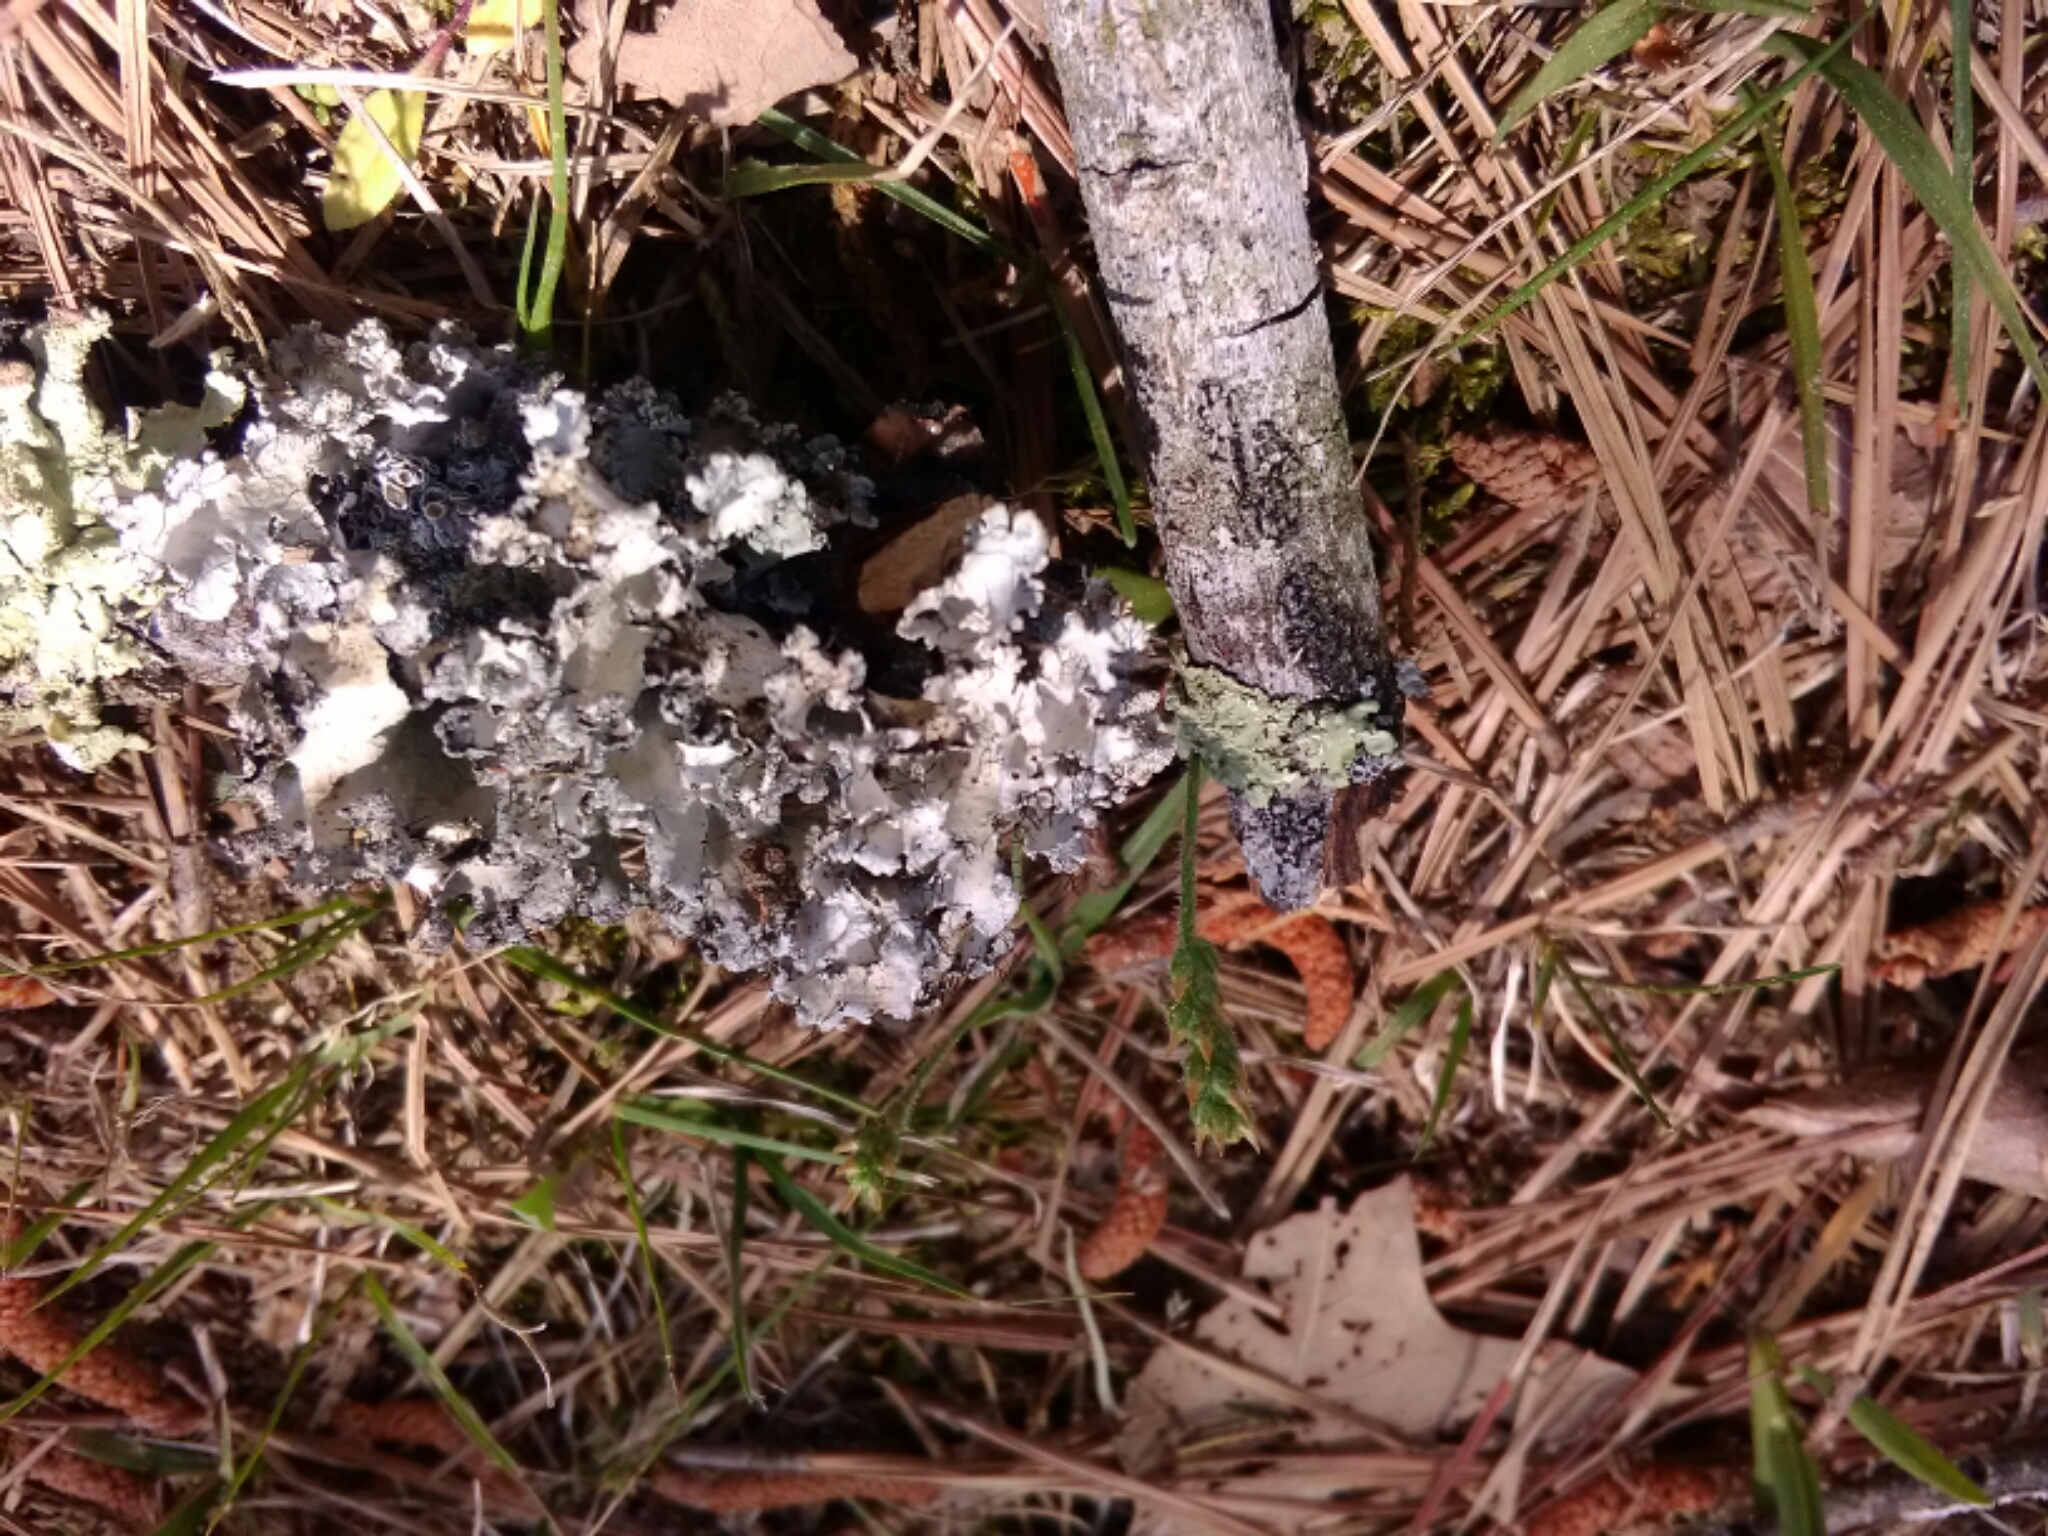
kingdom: Fungi
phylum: Ascomycota
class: Lecanoromycetes
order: Lecanorales
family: Parmeliaceae
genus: Parmotrema
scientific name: Parmotrema hypotropum
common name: Powdered ruffle lichen
